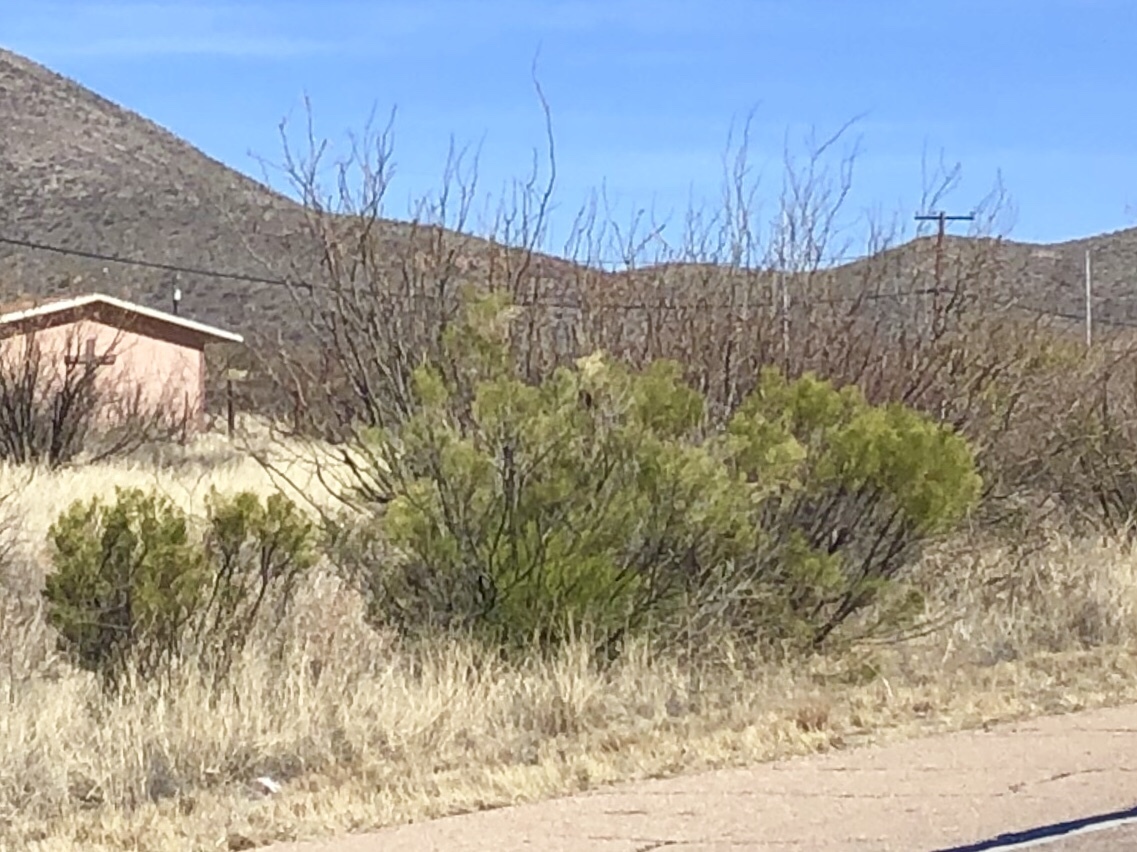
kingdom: Plantae
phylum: Tracheophyta
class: Magnoliopsida
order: Asterales
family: Asteraceae
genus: Baccharis
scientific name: Baccharis sarothroides
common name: Desert-broom
